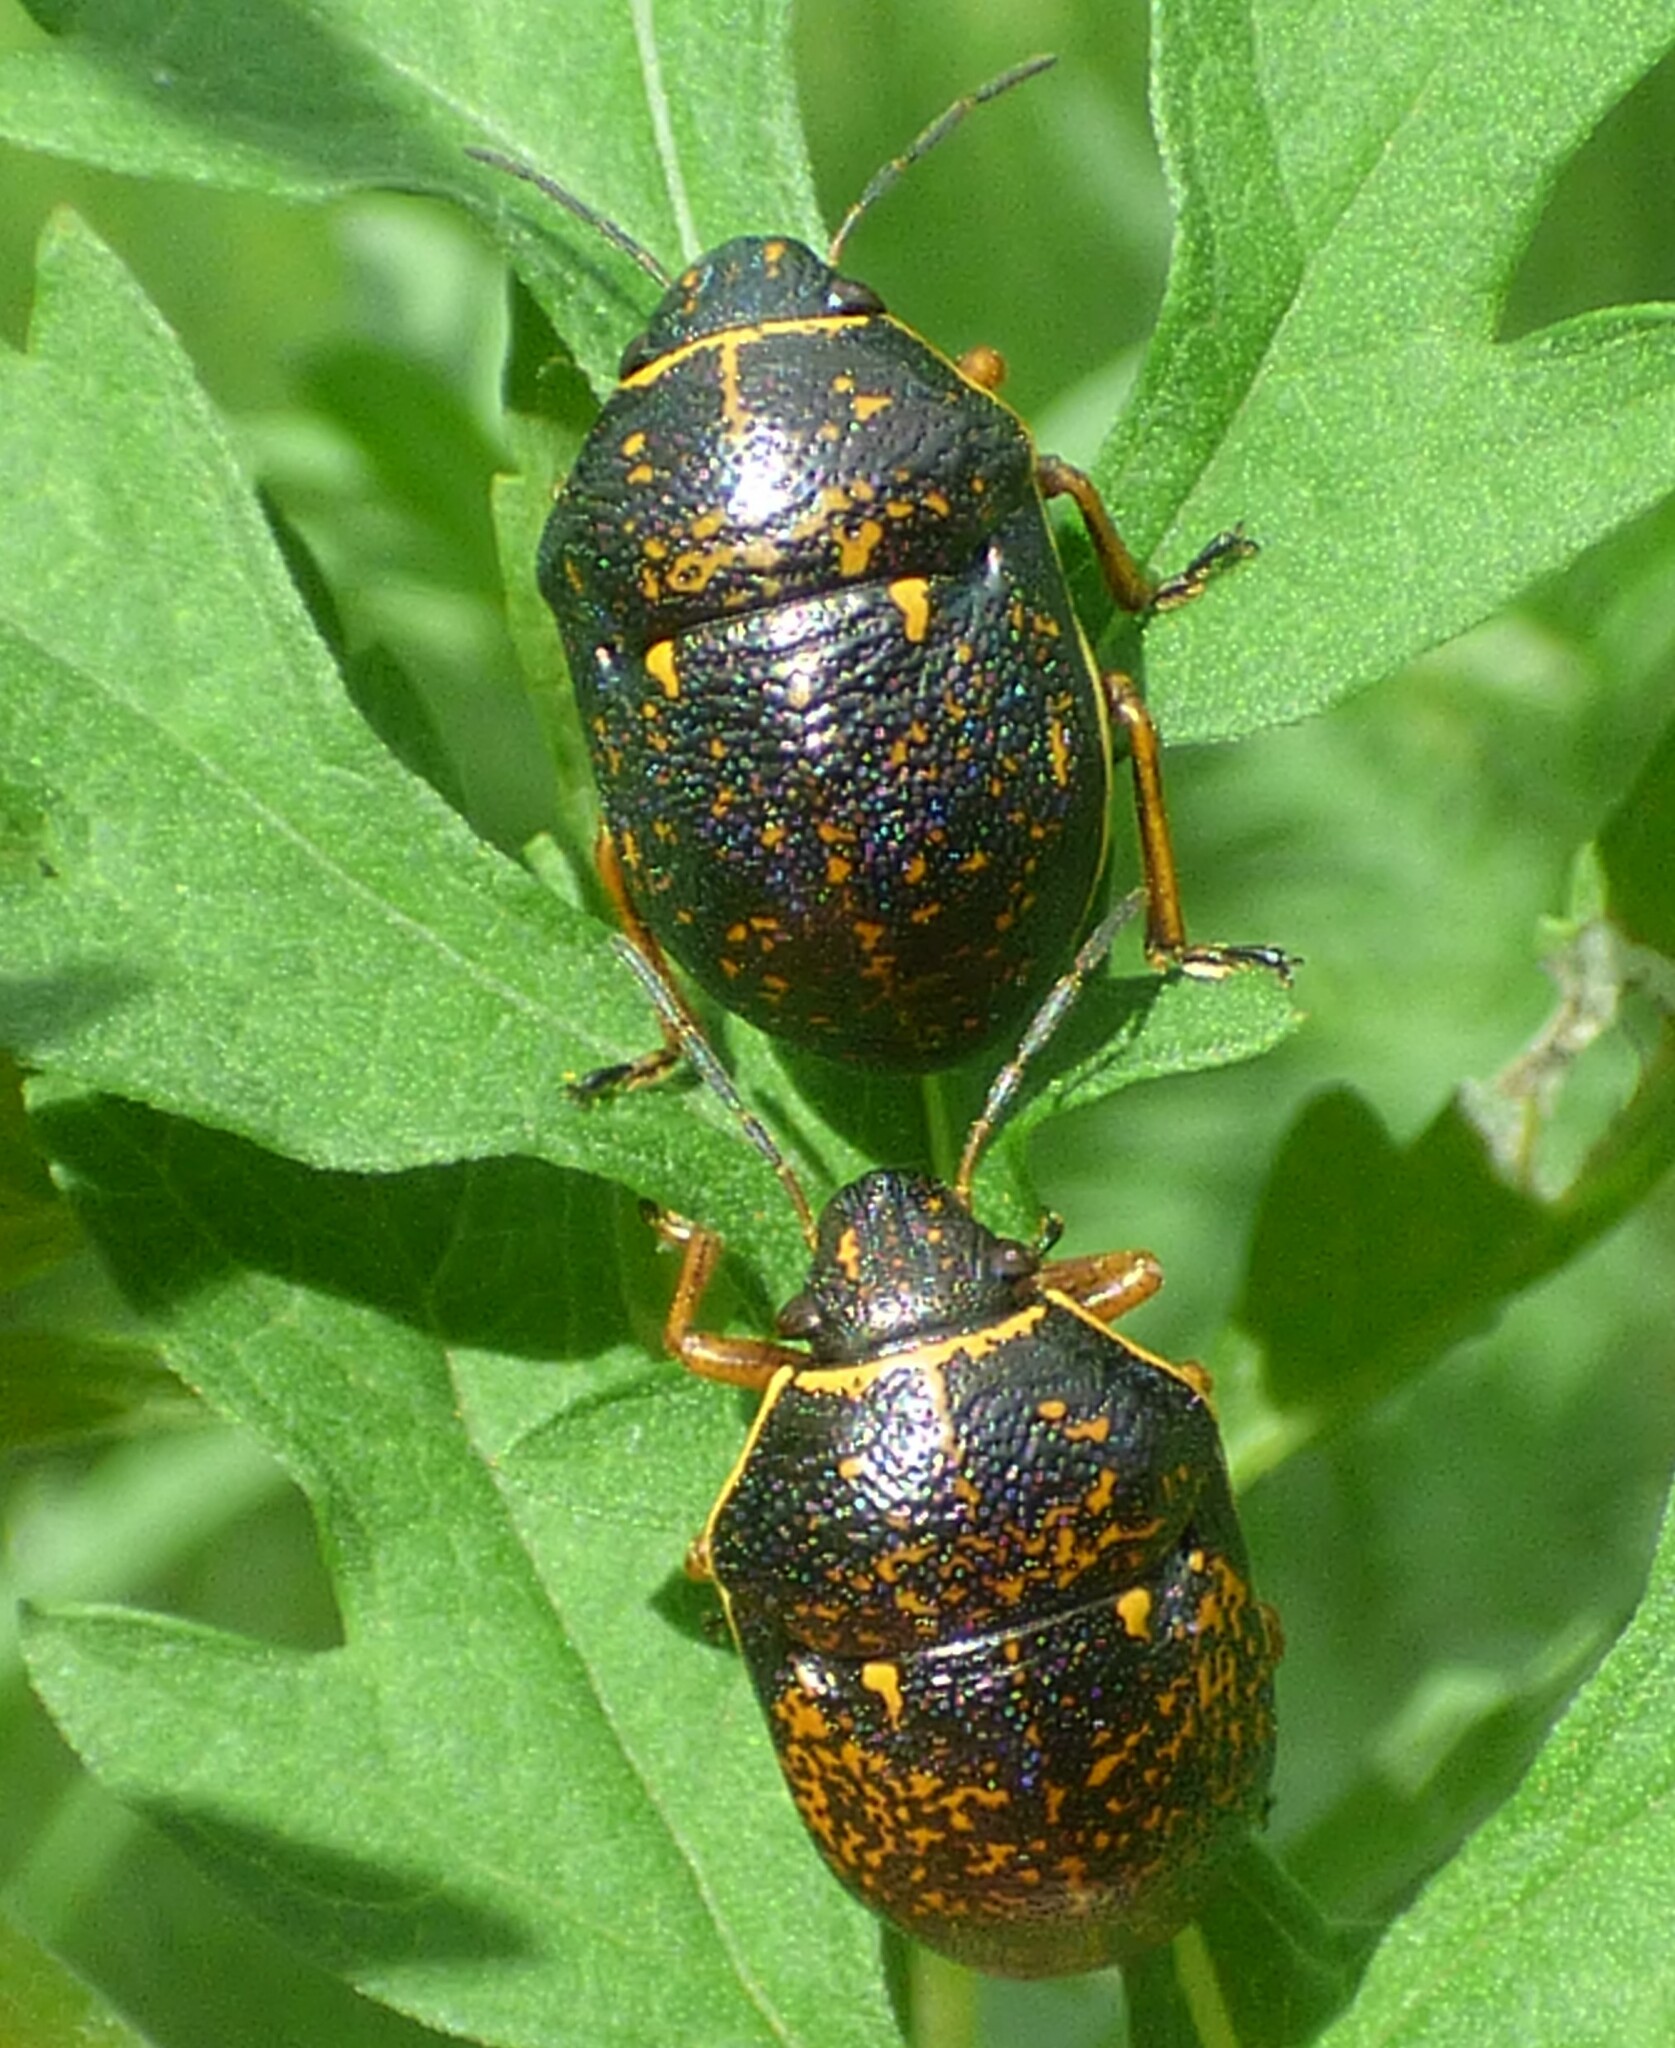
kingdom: Animalia
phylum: Arthropoda
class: Insecta
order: Hemiptera
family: Scutelleridae
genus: Orsilochides
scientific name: Orsilochides guttata
